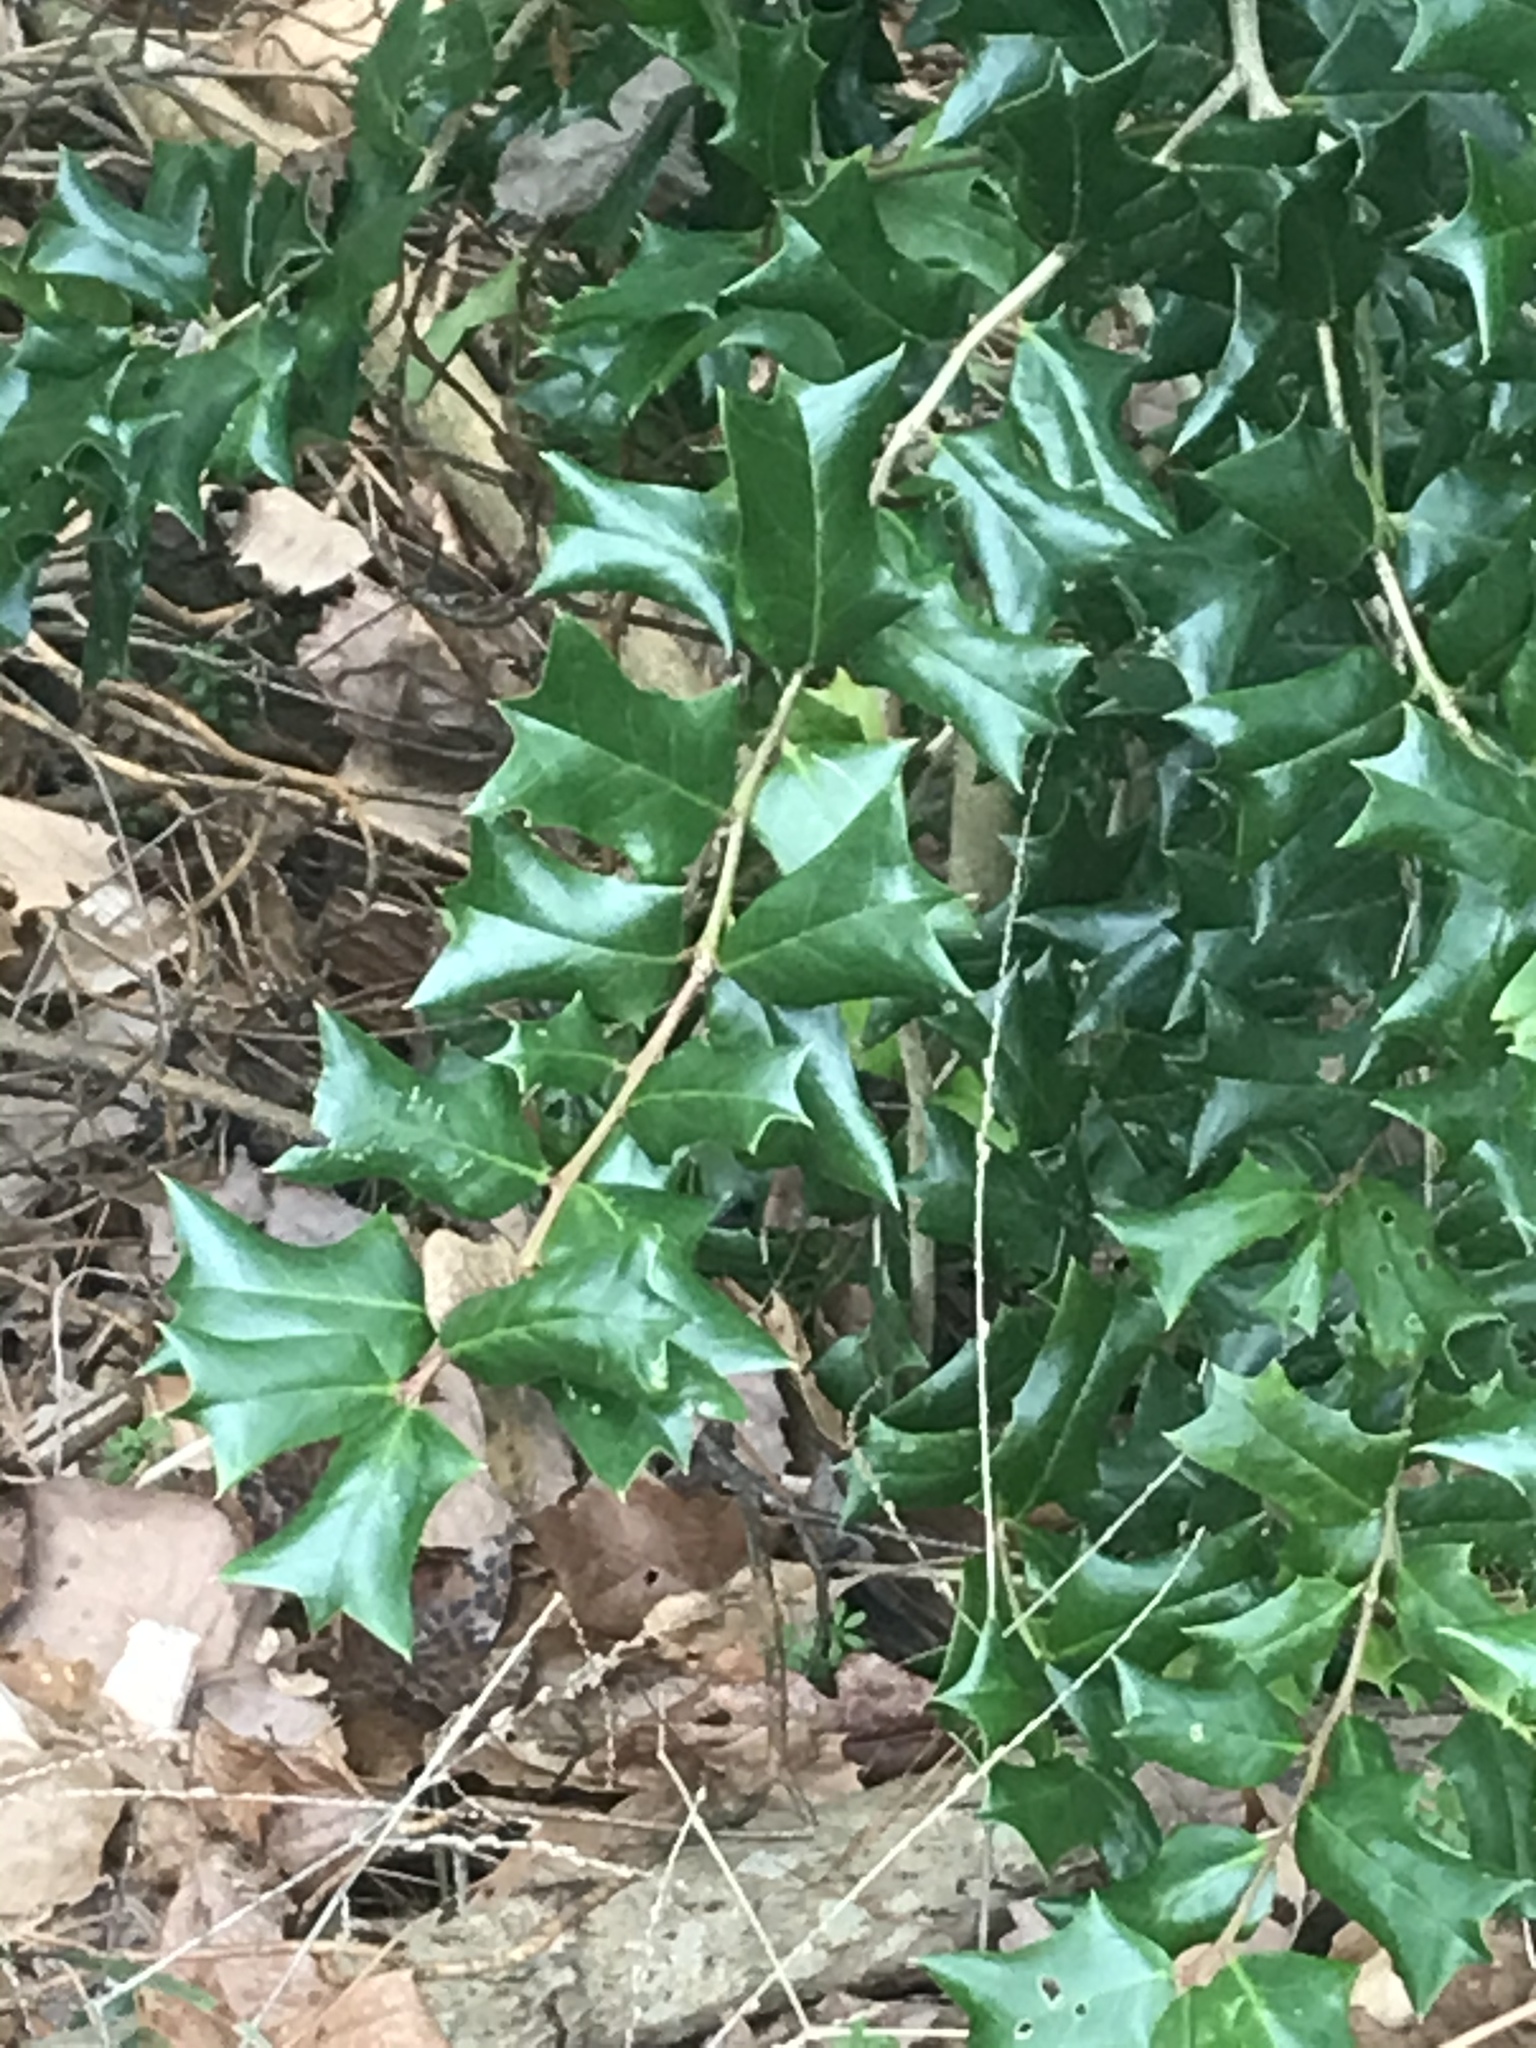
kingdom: Plantae
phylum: Tracheophyta
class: Magnoliopsida
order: Aquifoliales
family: Aquifoliaceae
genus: Ilex
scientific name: Ilex cornuta
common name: Chinese holly
